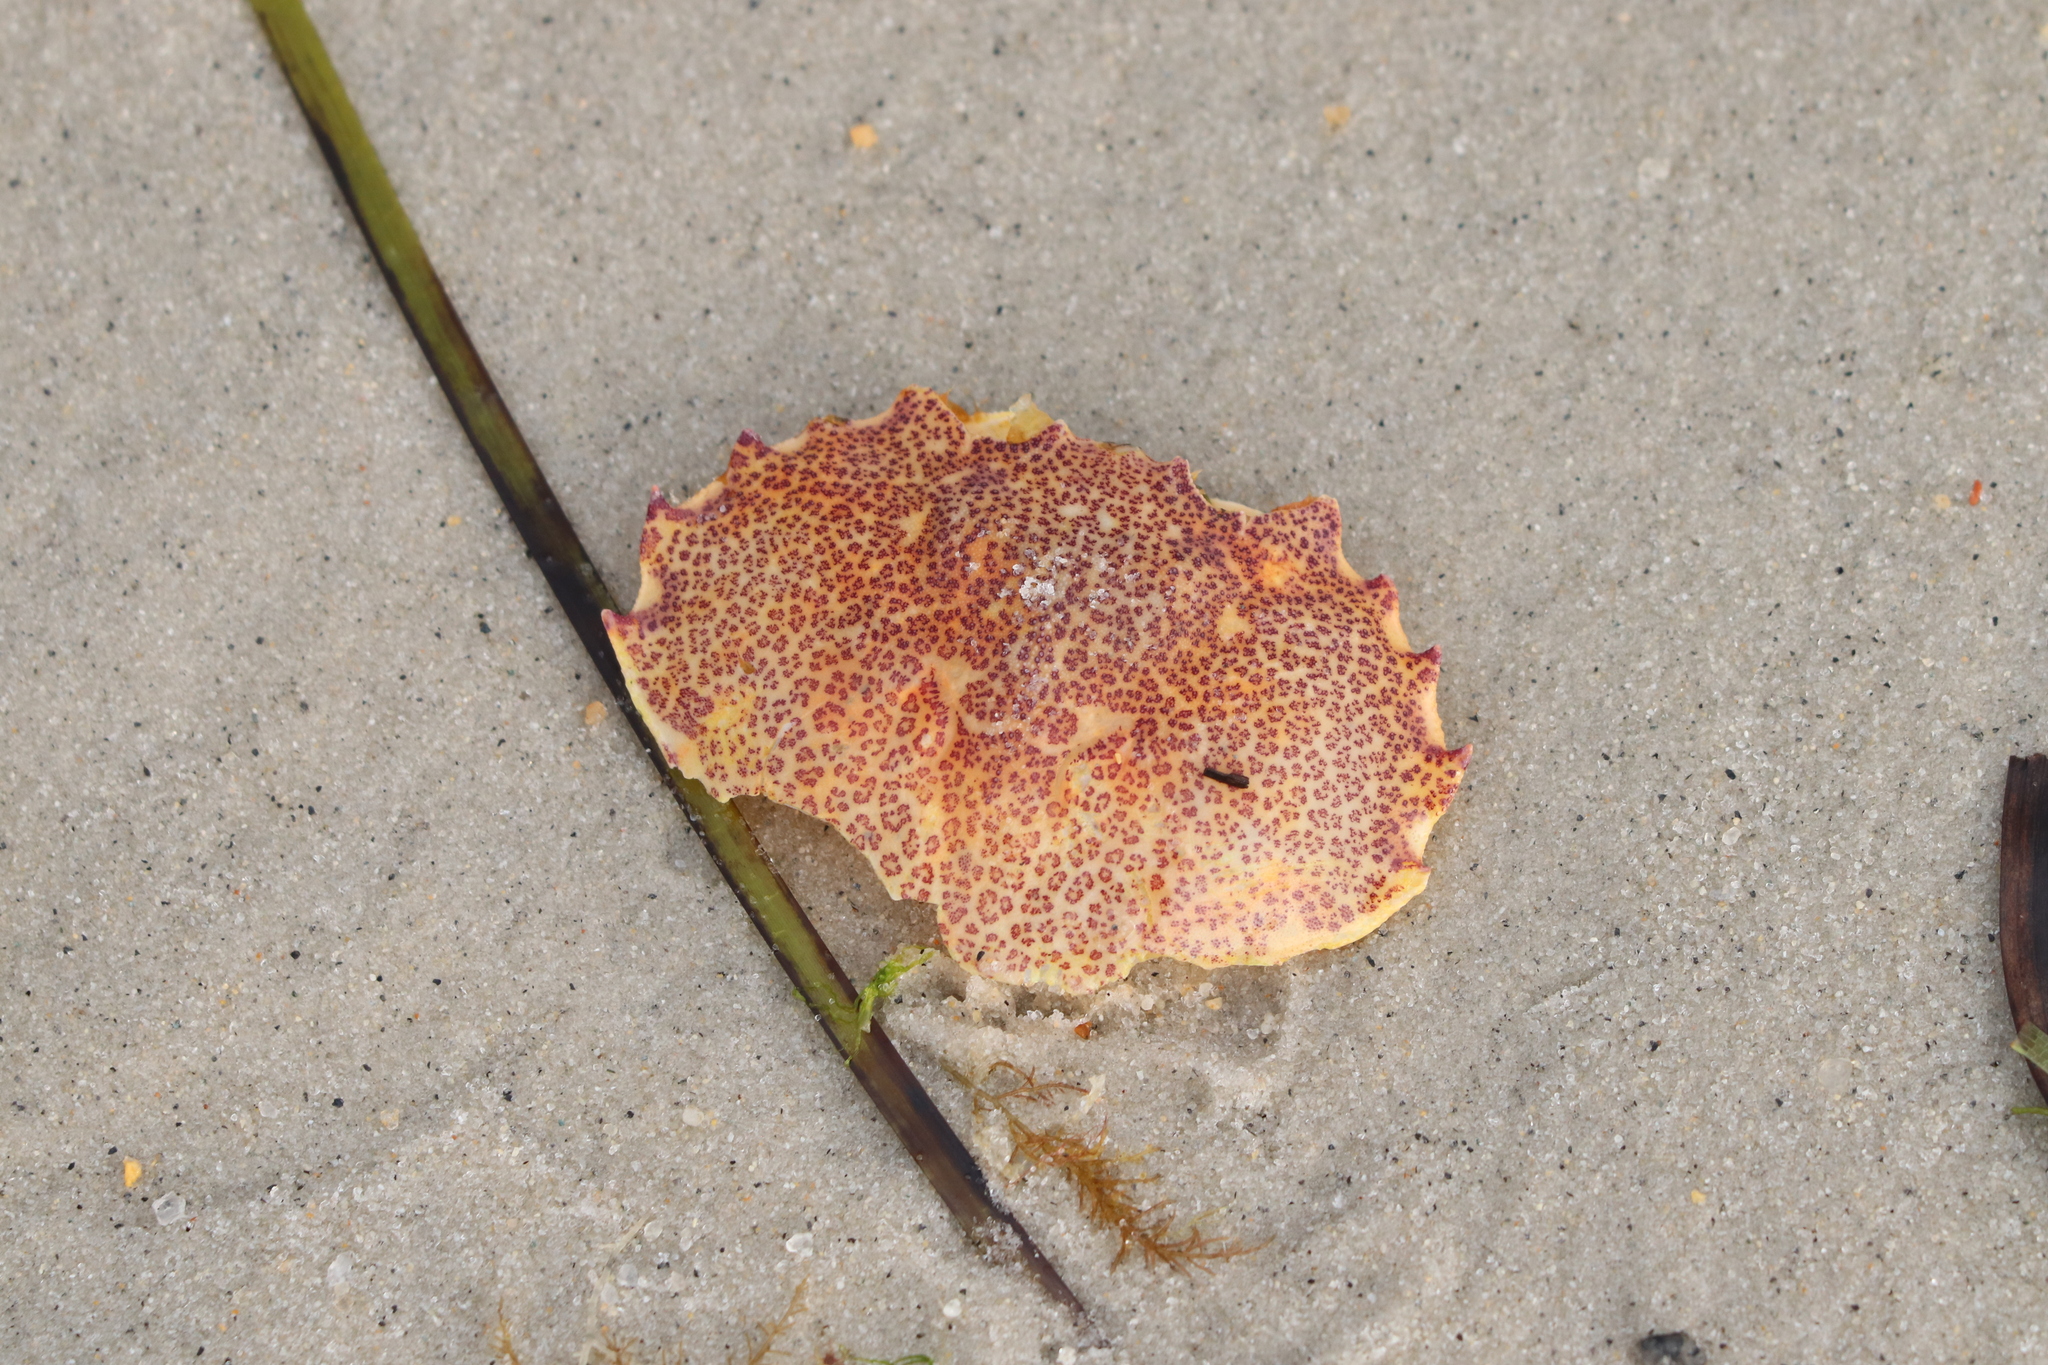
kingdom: Animalia
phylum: Arthropoda
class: Malacostraca
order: Decapoda
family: Ovalipidae
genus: Ovalipes
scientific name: Ovalipes ocellatus
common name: Lady crab
